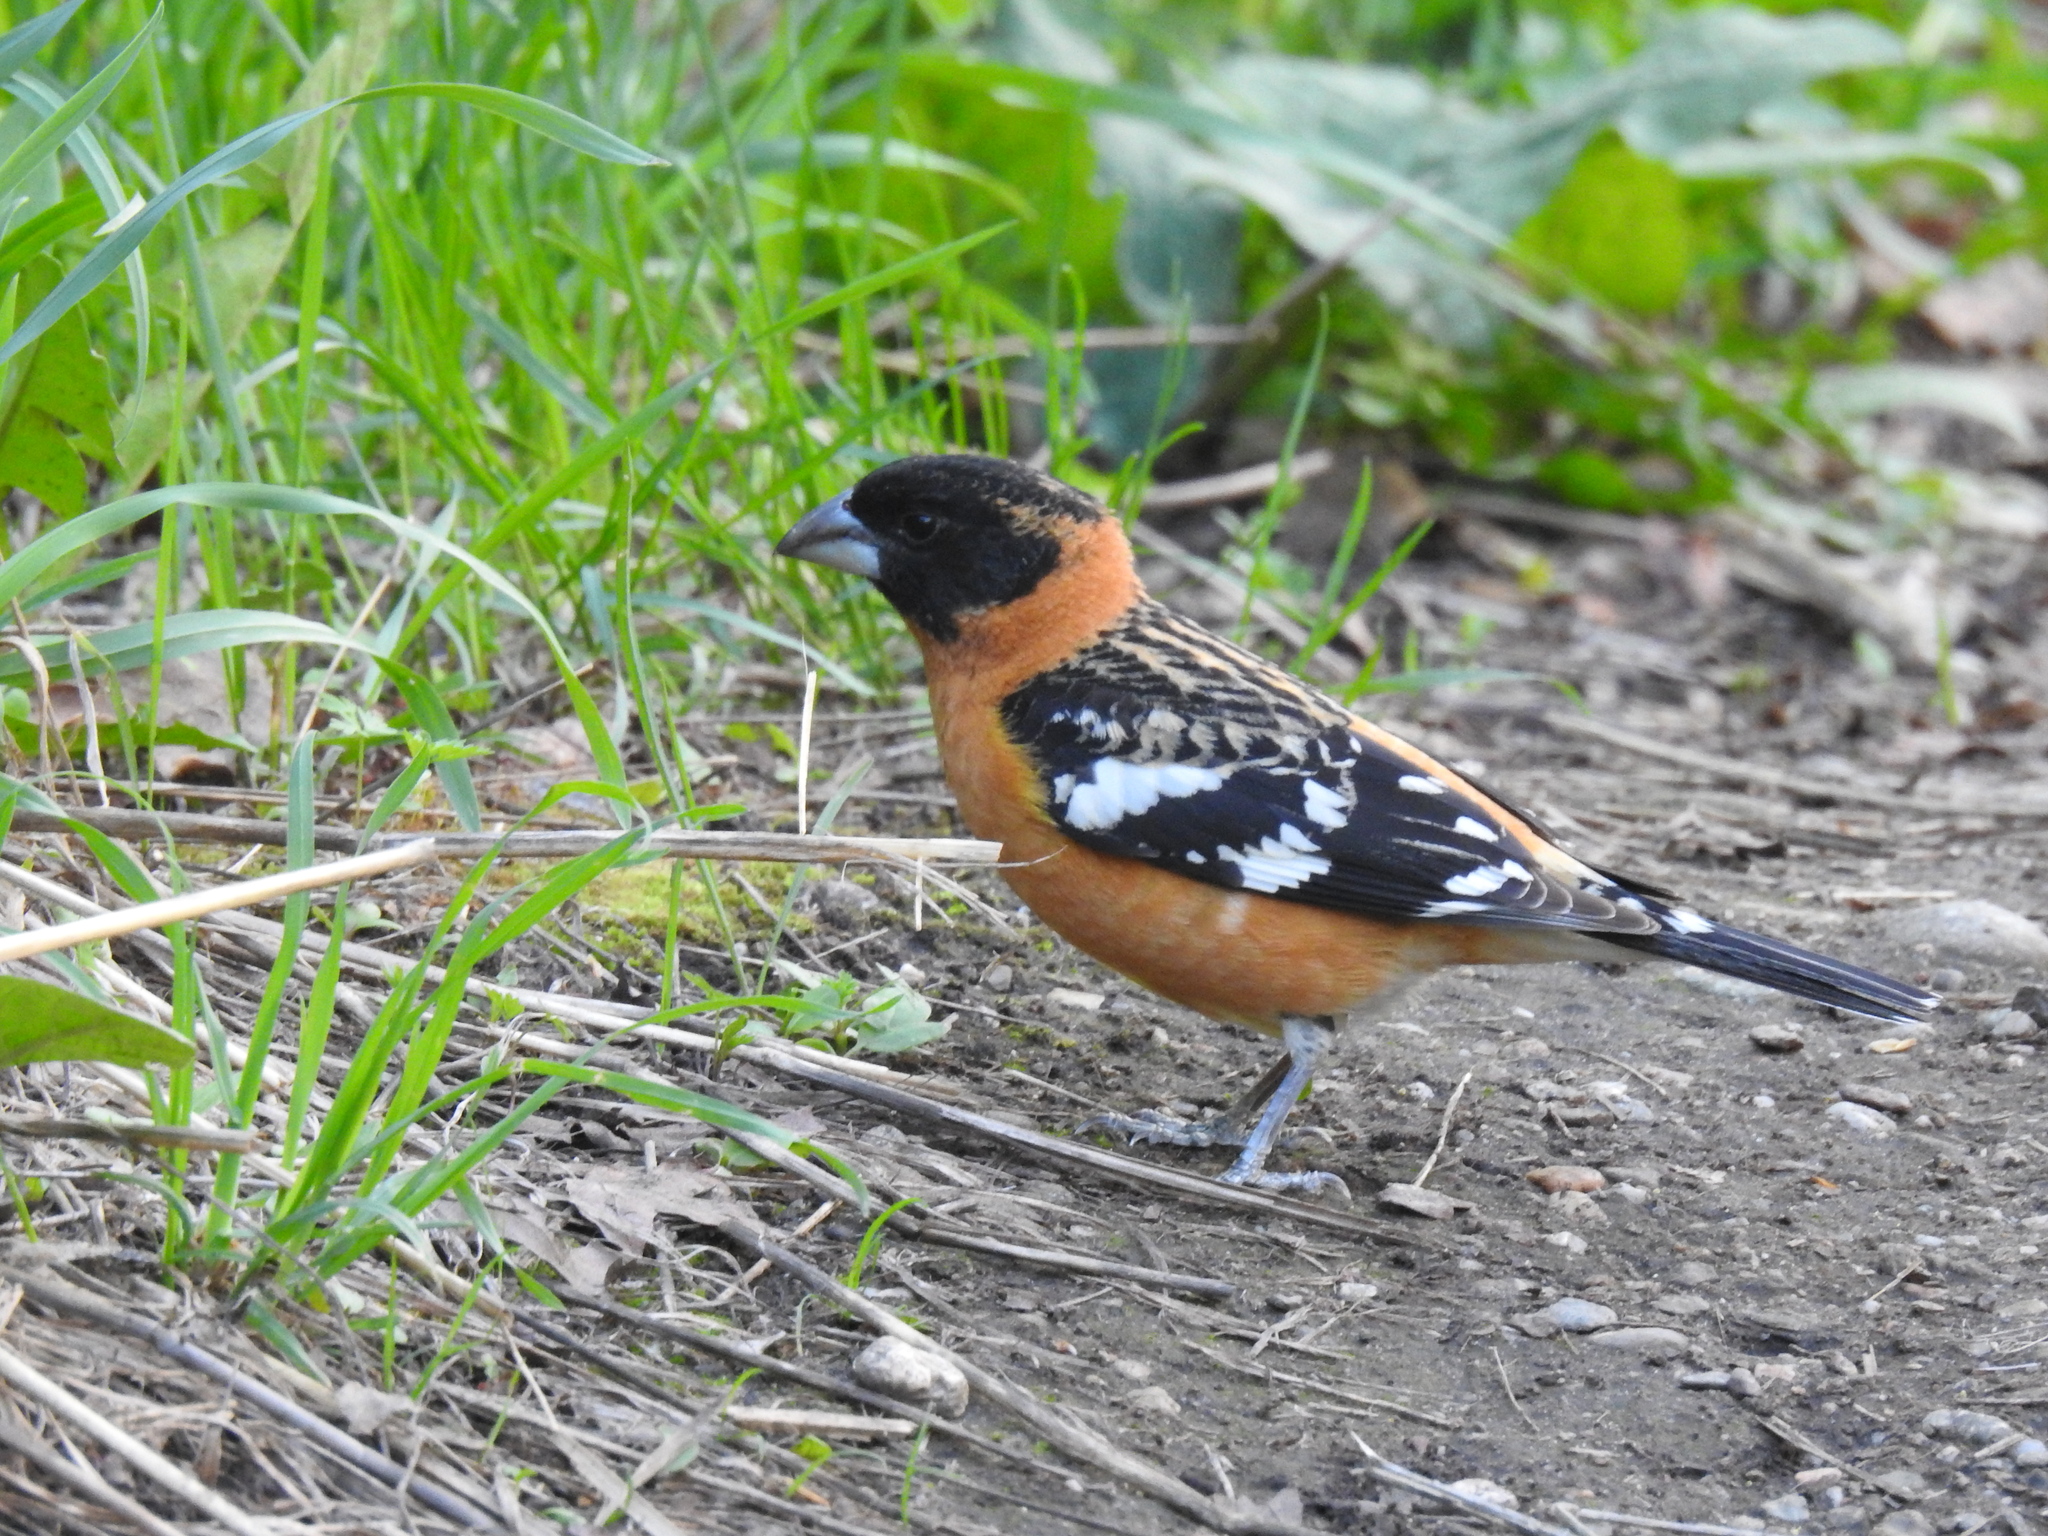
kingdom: Animalia
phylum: Chordata
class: Aves
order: Passeriformes
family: Cardinalidae
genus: Pheucticus
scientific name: Pheucticus melanocephalus
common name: Black-headed grosbeak
